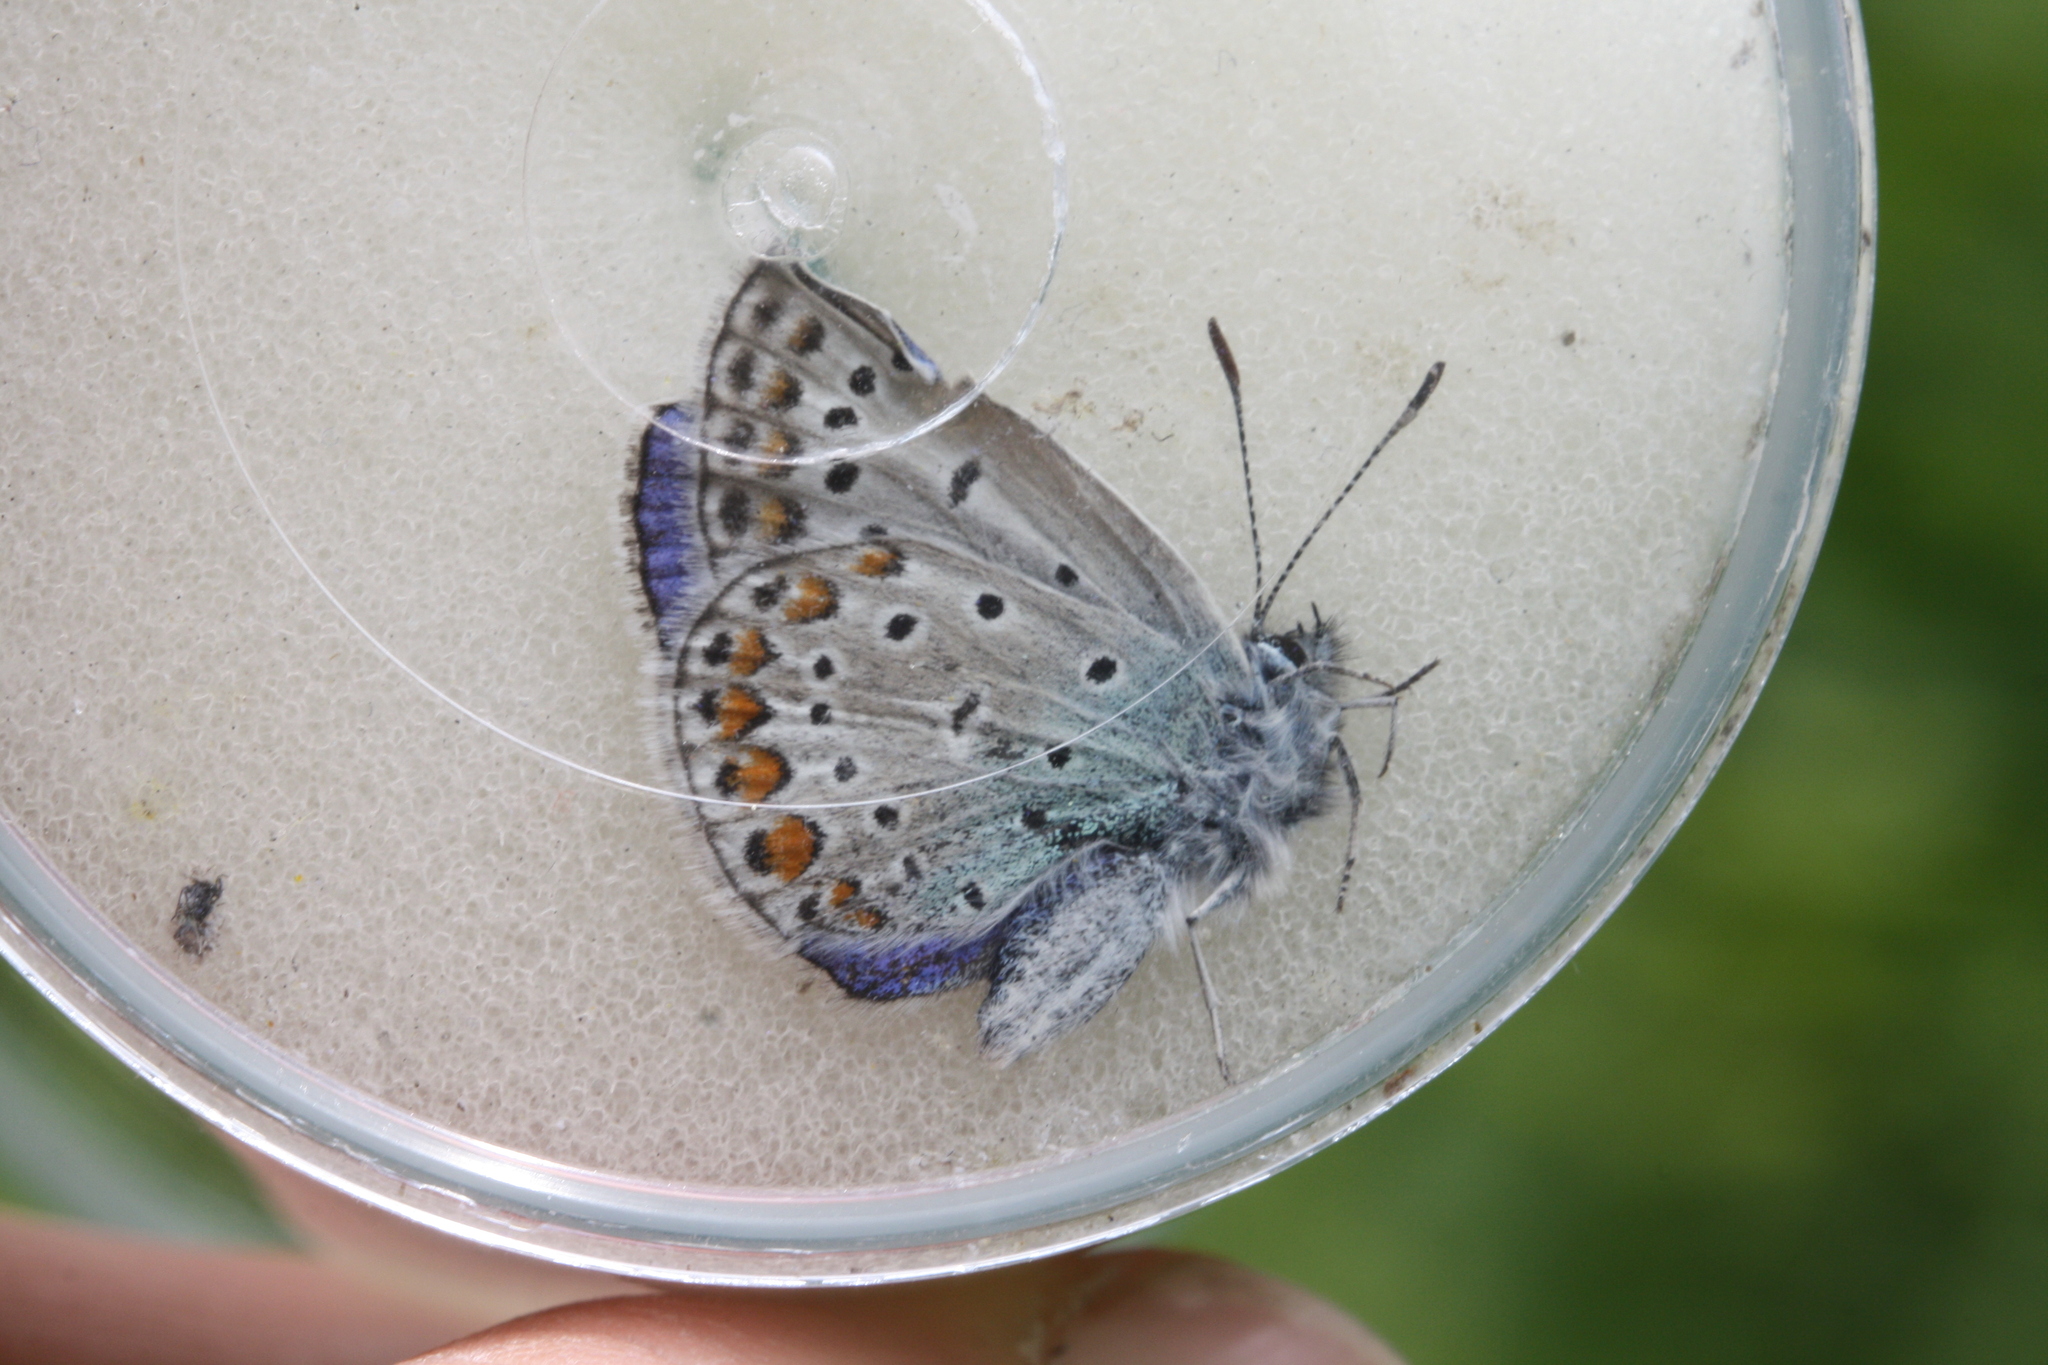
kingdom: Animalia
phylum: Arthropoda
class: Insecta
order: Lepidoptera
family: Lycaenidae
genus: Polyommatus
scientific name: Polyommatus icarus
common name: Common blue
